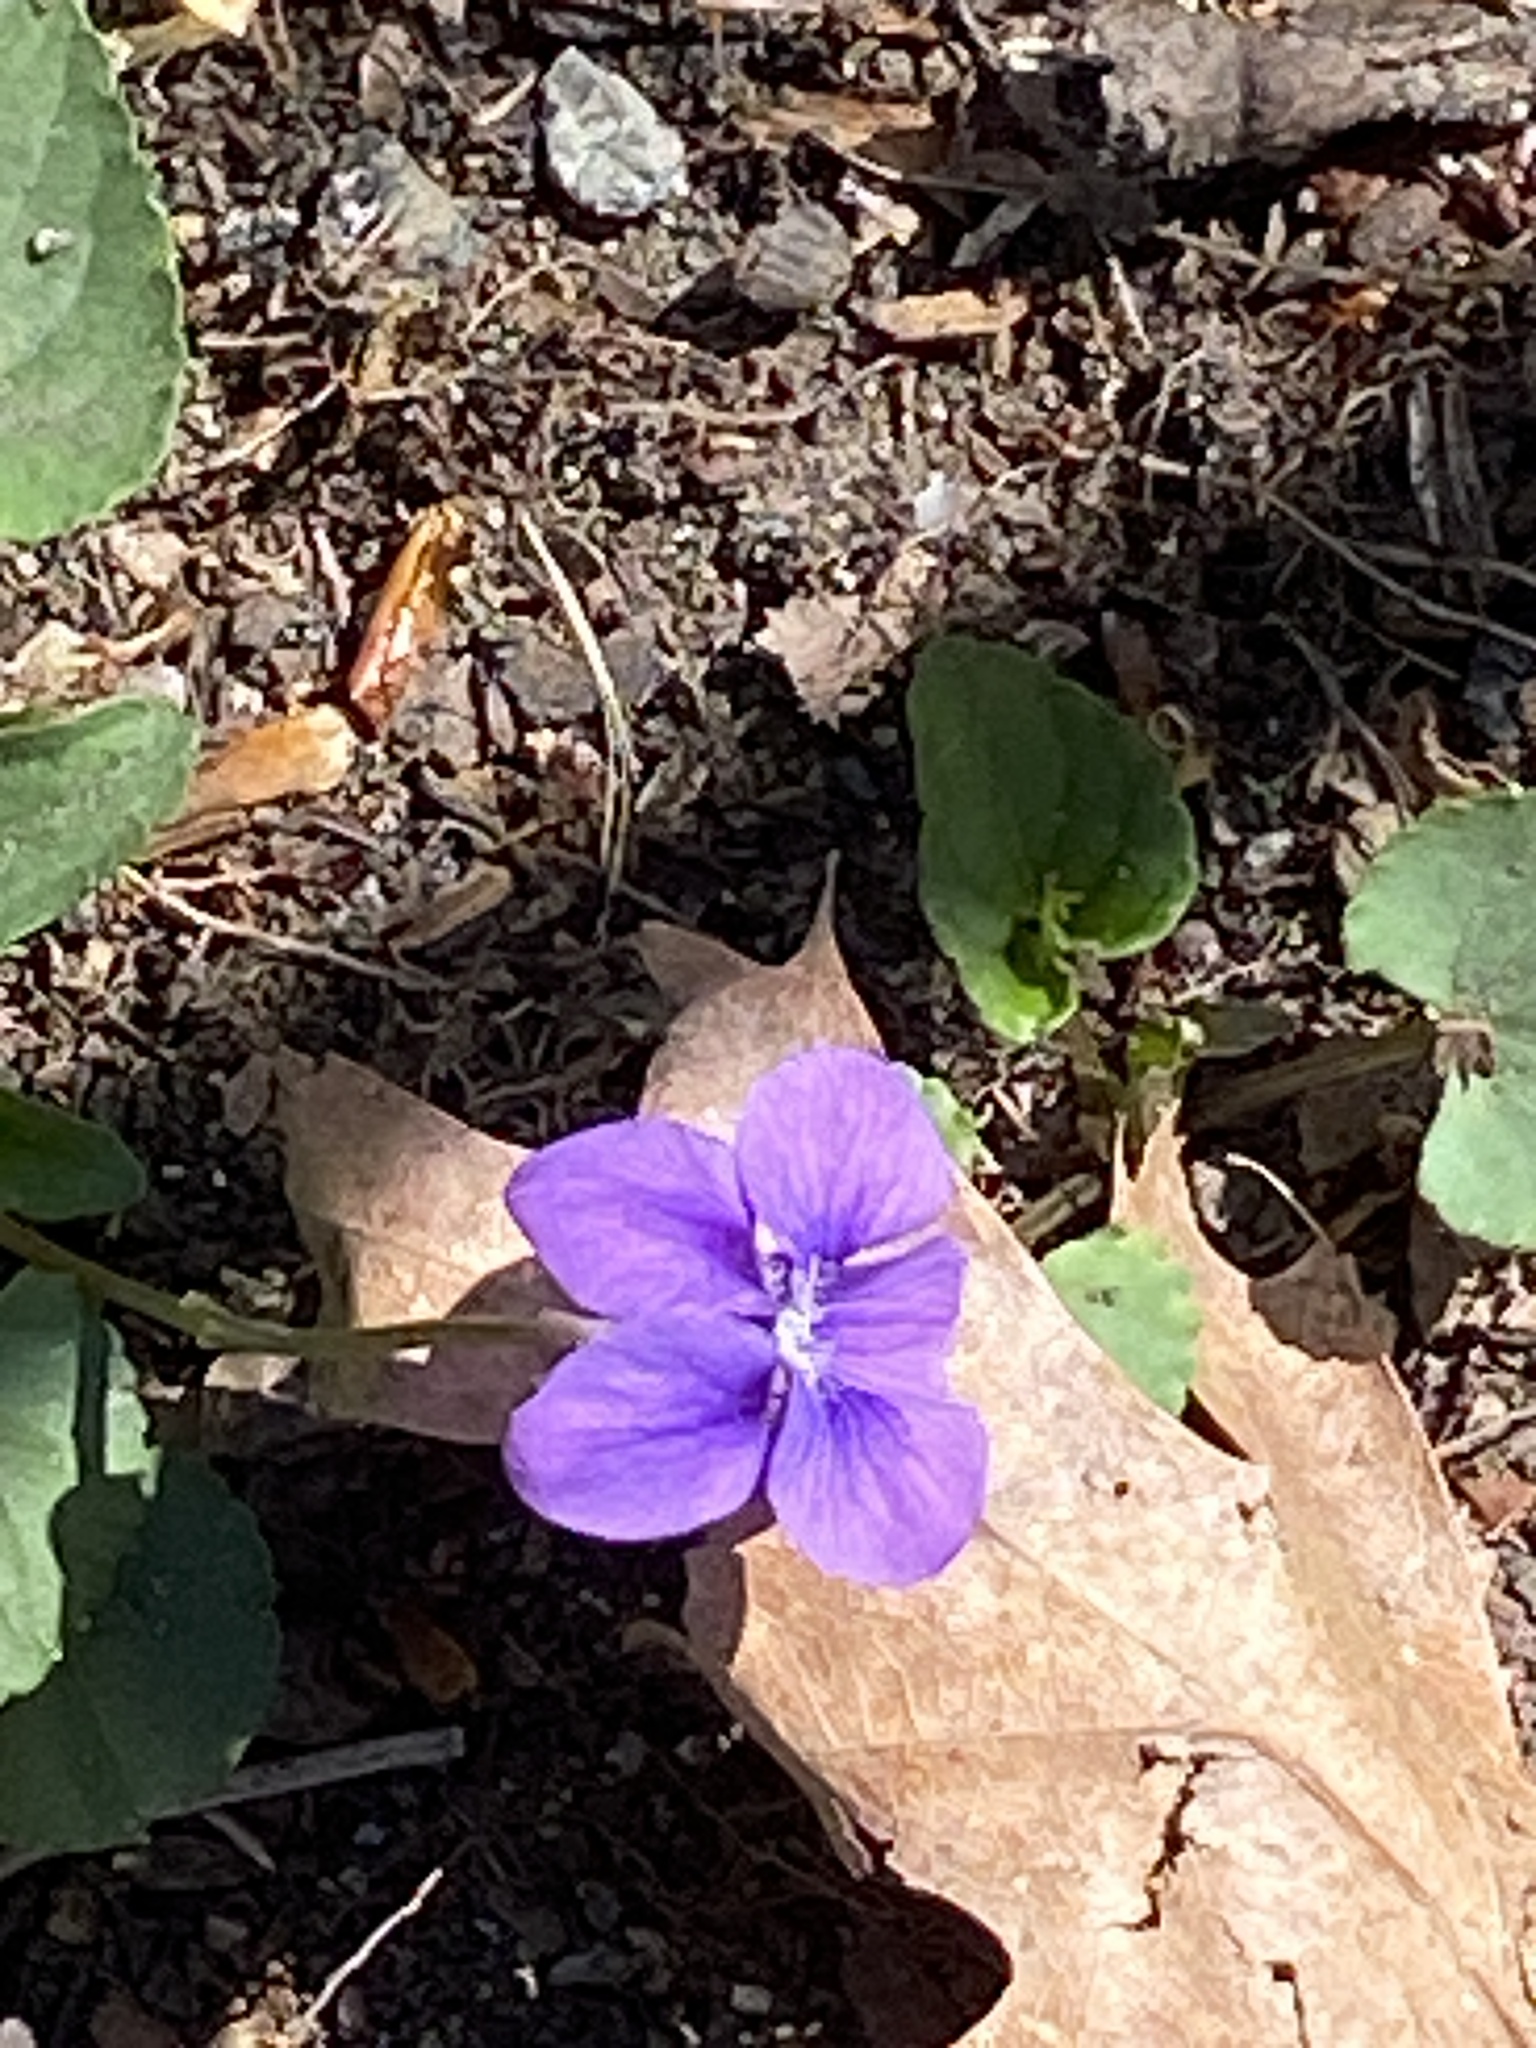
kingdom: Plantae
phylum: Tracheophyta
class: Magnoliopsida
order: Malpighiales
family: Violaceae
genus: Viola
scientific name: Viola sororia
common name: Dooryard violet
